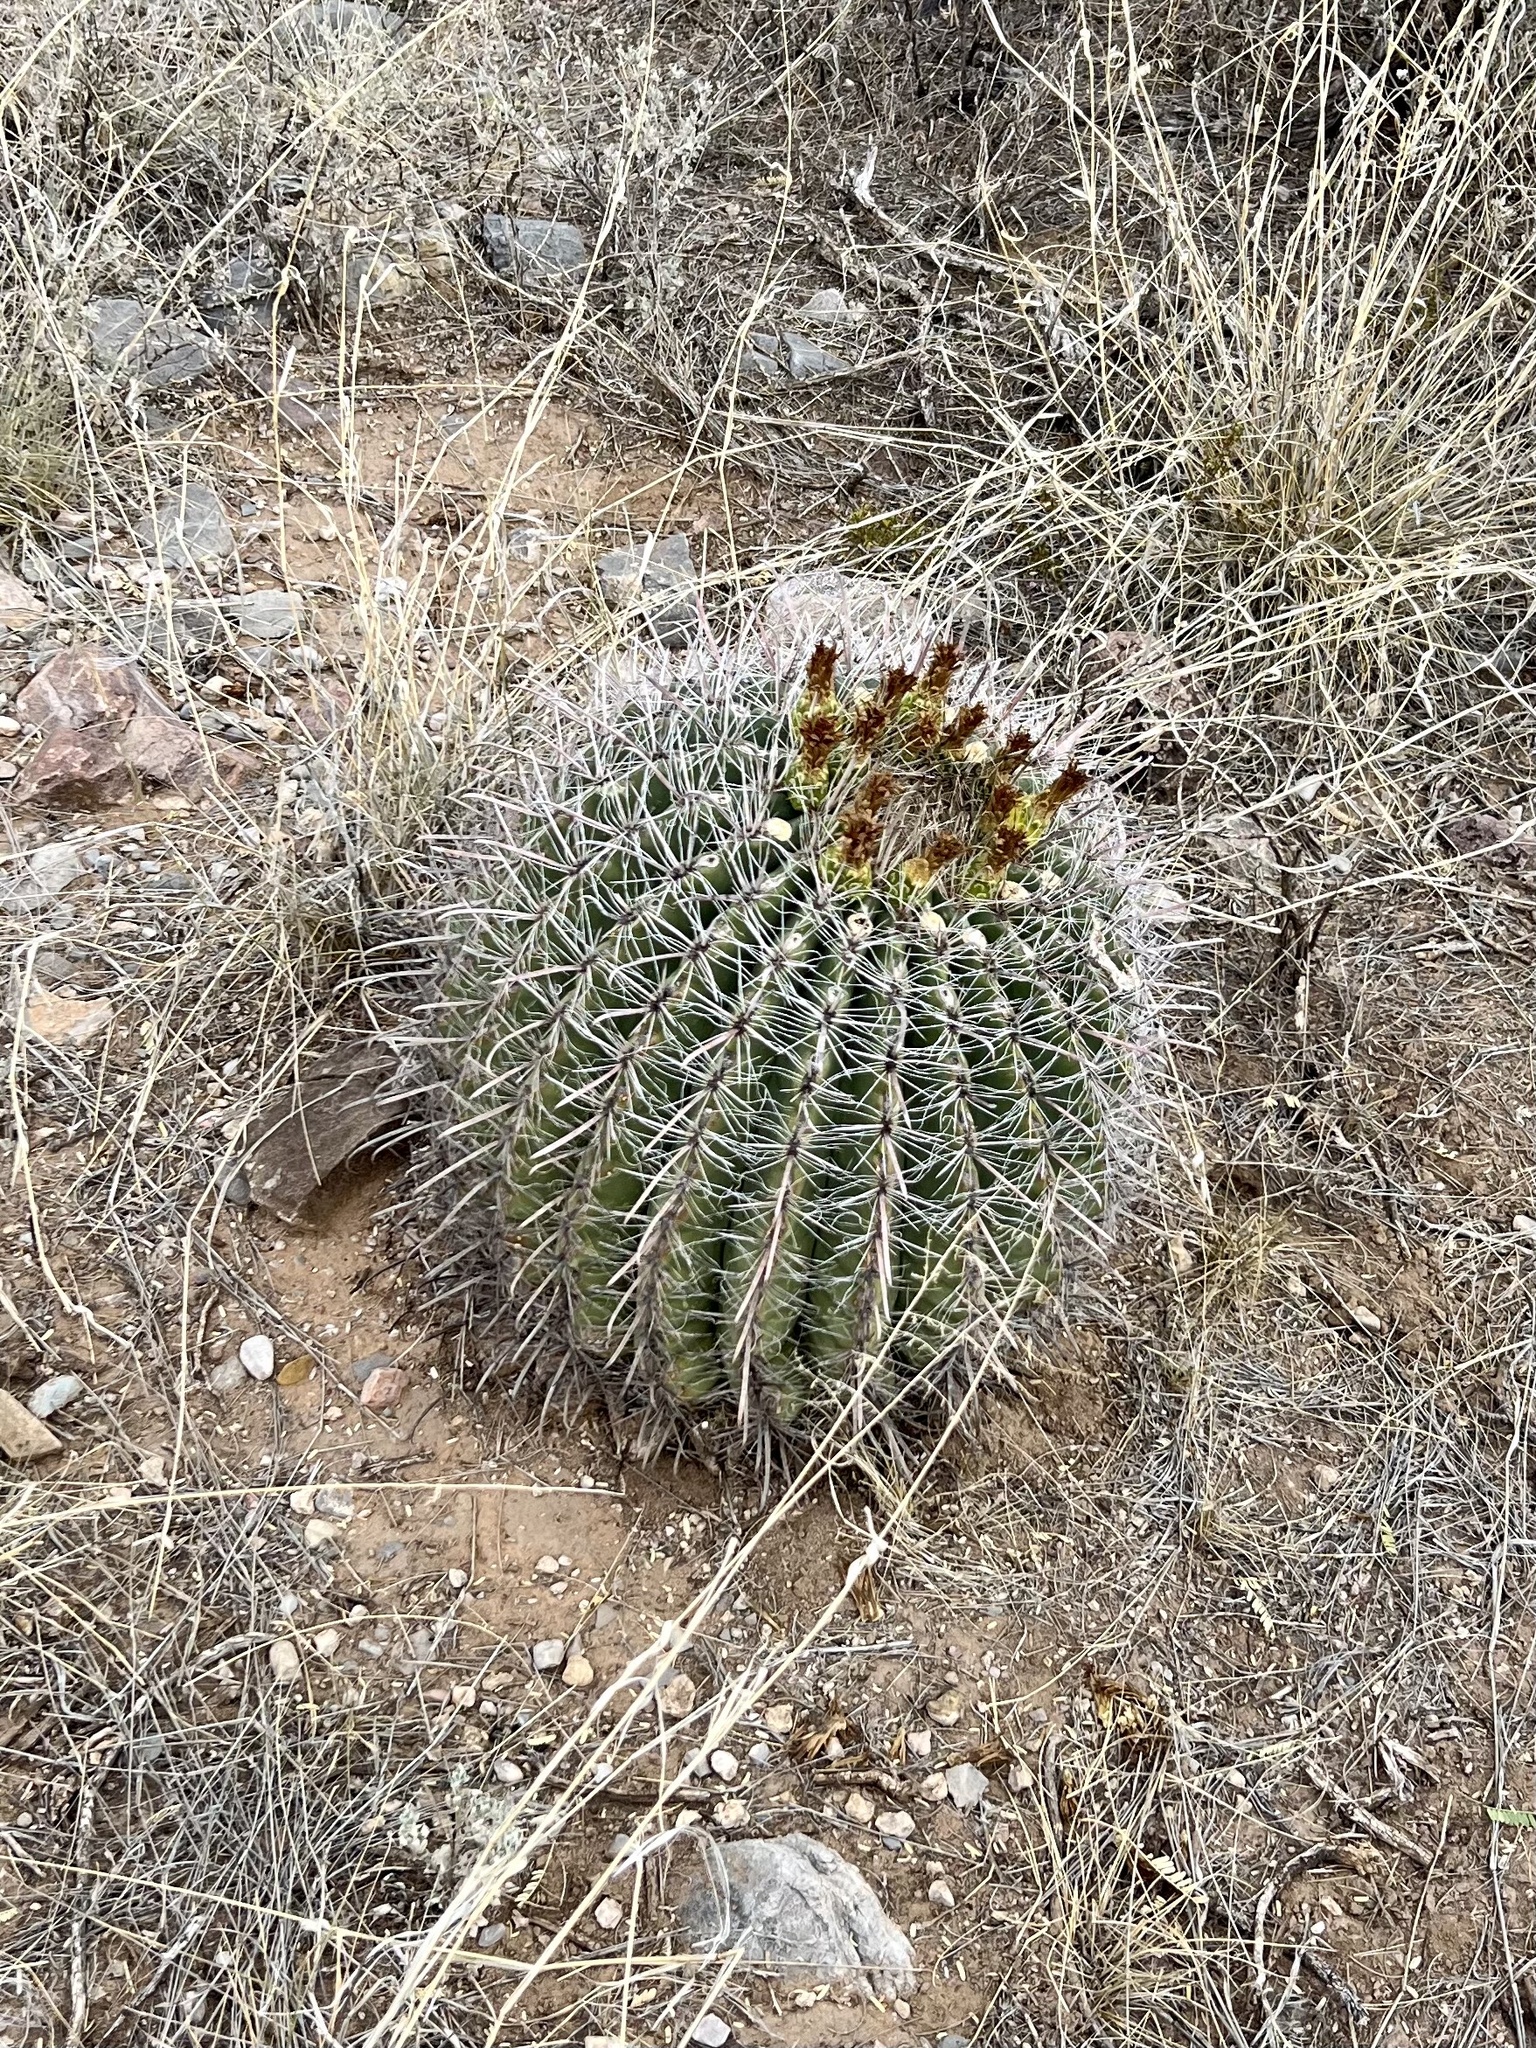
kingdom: Plantae
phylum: Tracheophyta
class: Magnoliopsida
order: Caryophyllales
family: Cactaceae
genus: Ferocactus
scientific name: Ferocactus wislizeni
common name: Candy barrel cactus
